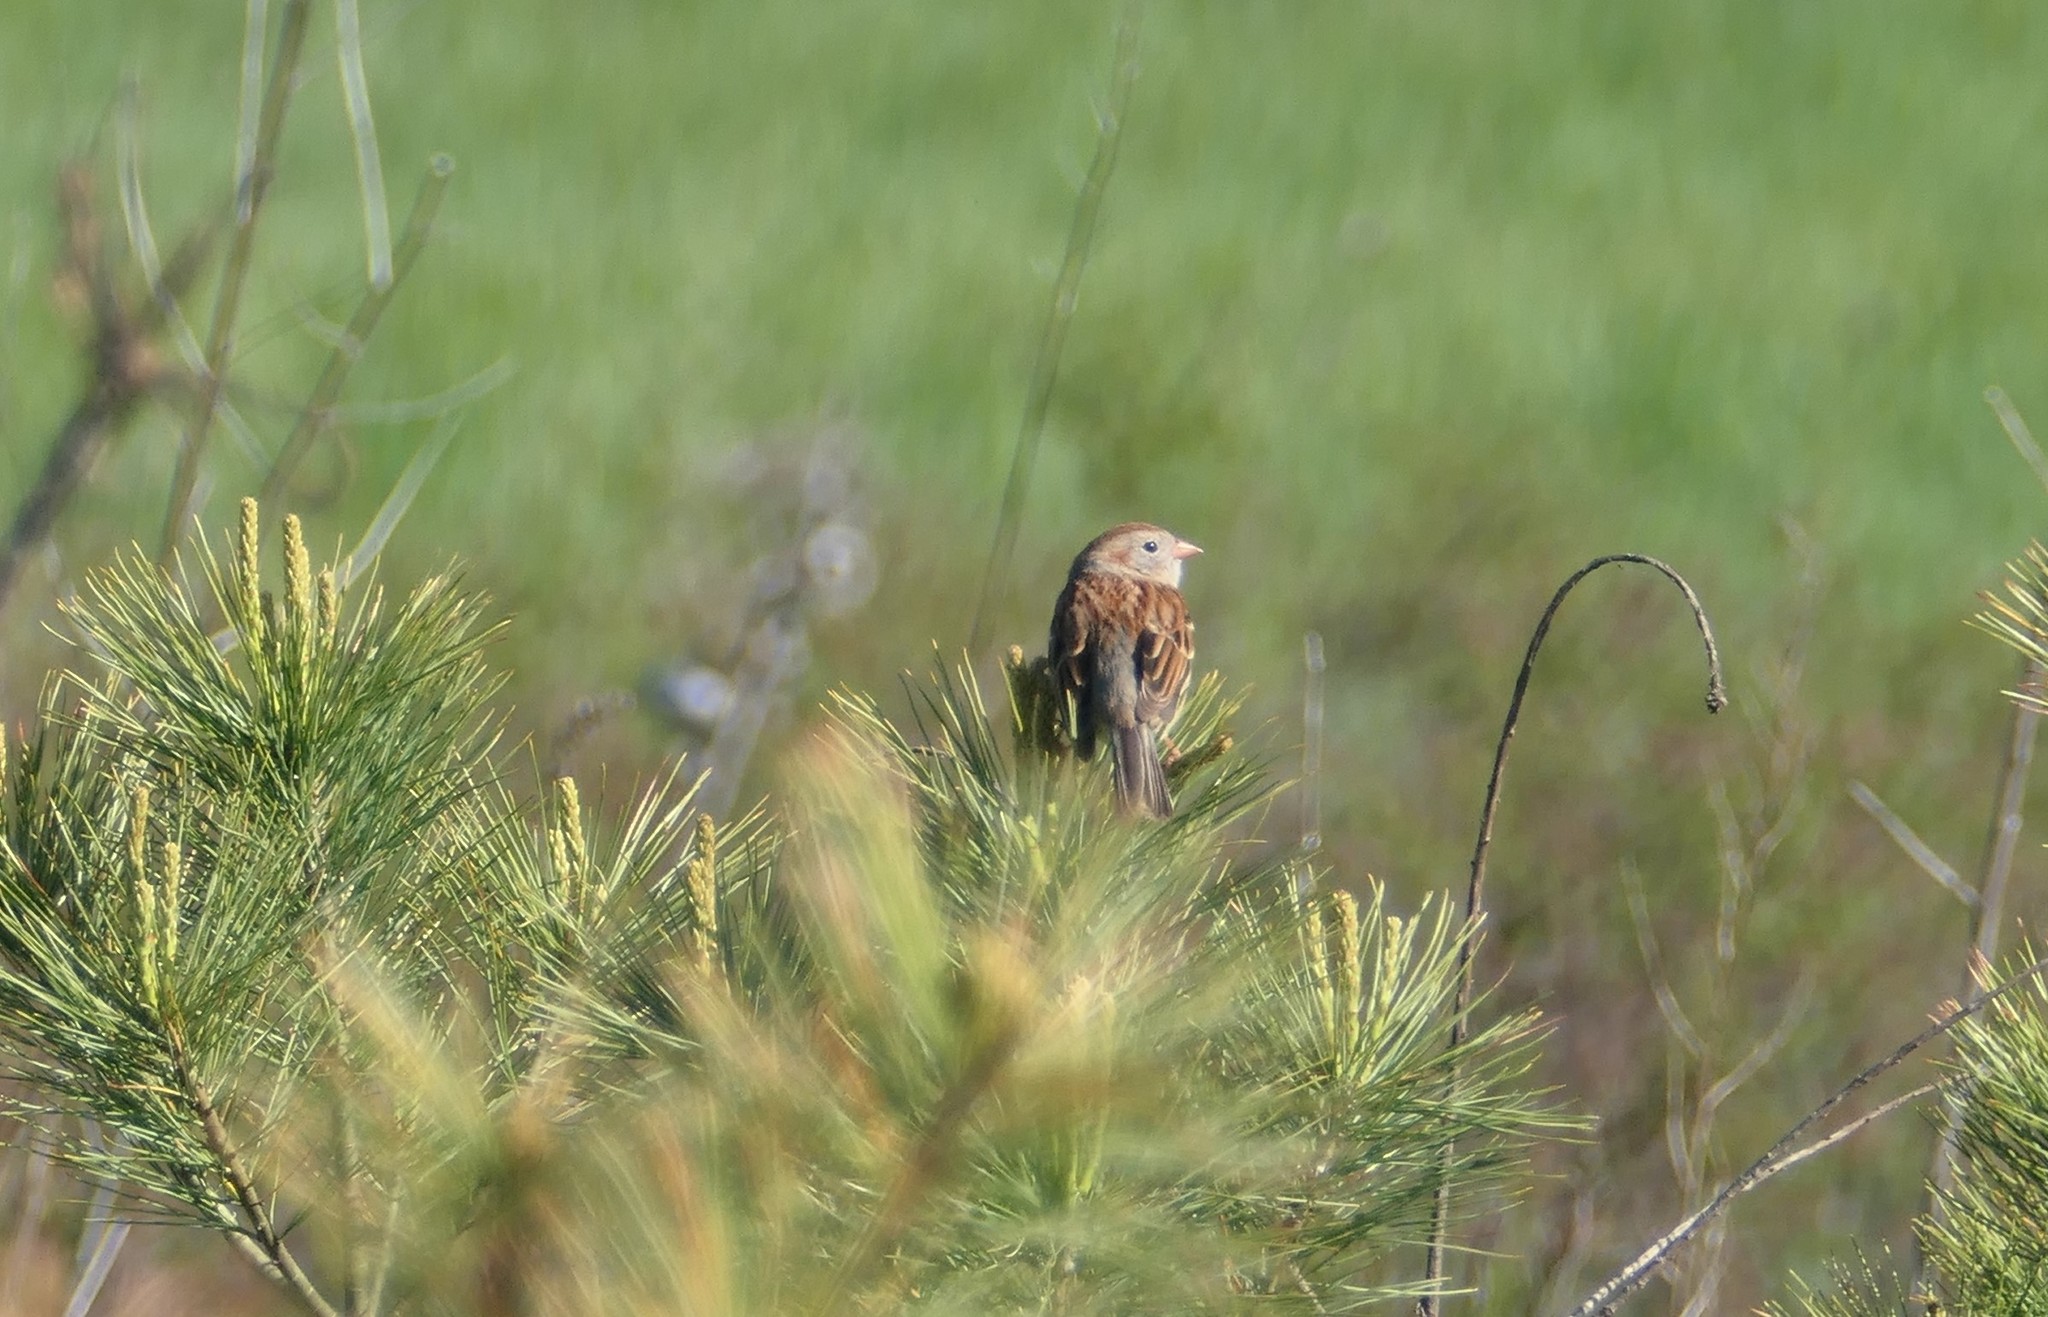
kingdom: Animalia
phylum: Chordata
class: Aves
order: Passeriformes
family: Passerellidae
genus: Spizella
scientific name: Spizella pusilla
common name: Field sparrow
